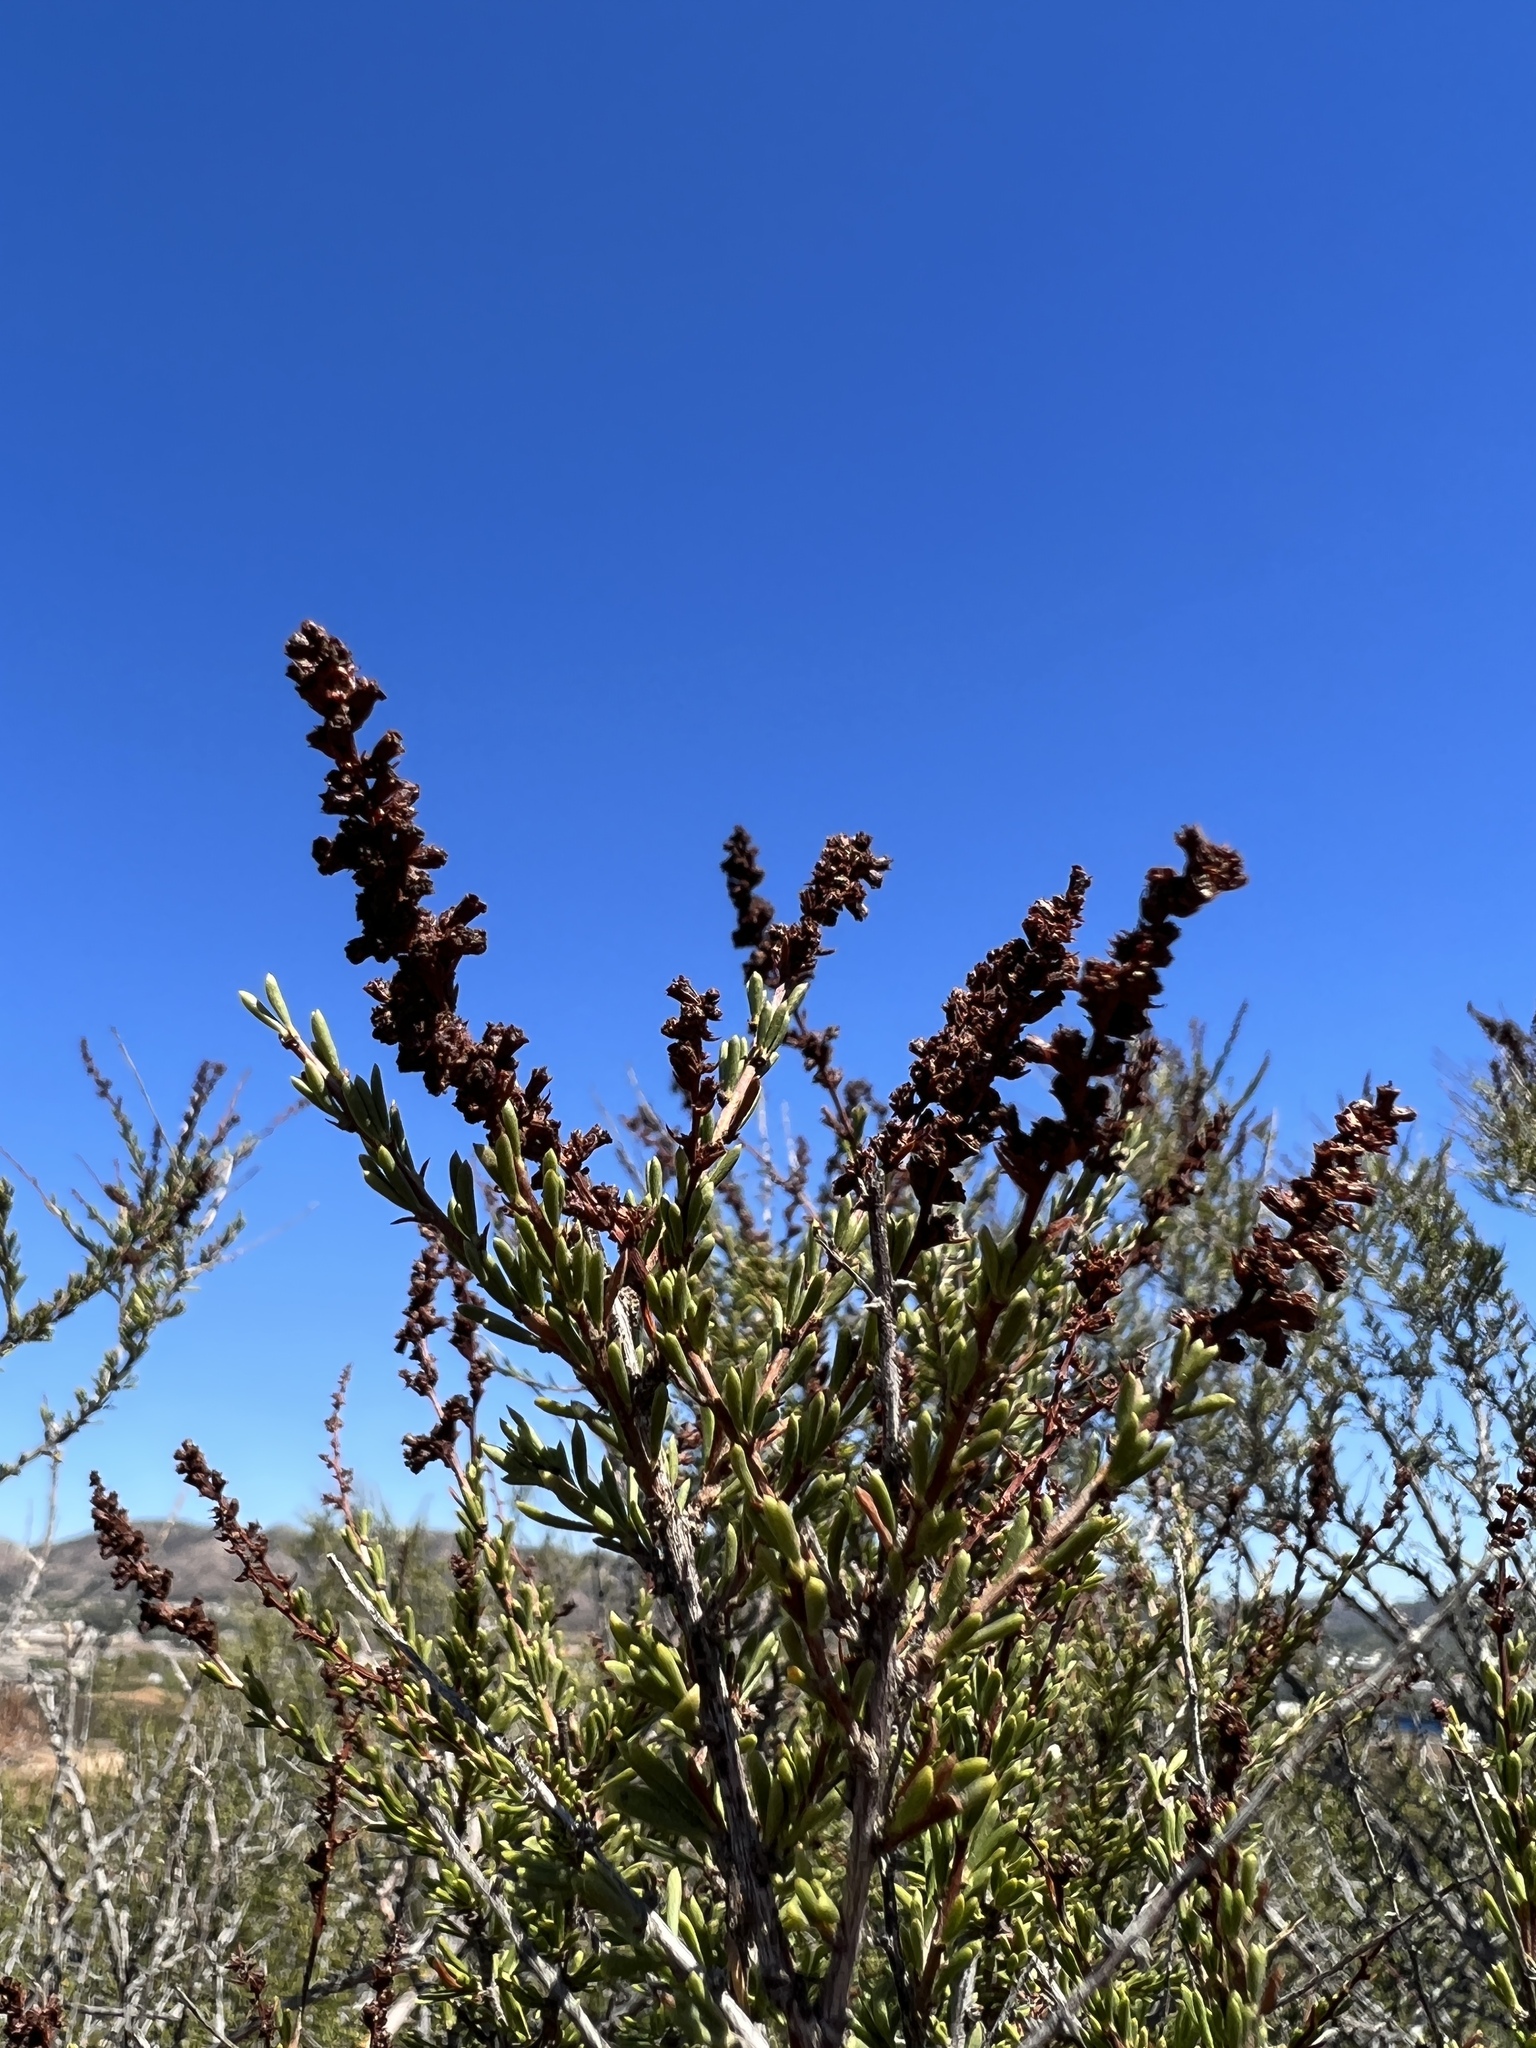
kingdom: Plantae
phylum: Tracheophyta
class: Magnoliopsida
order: Rosales
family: Rosaceae
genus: Adenostoma
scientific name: Adenostoma fasciculatum
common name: Chamise
